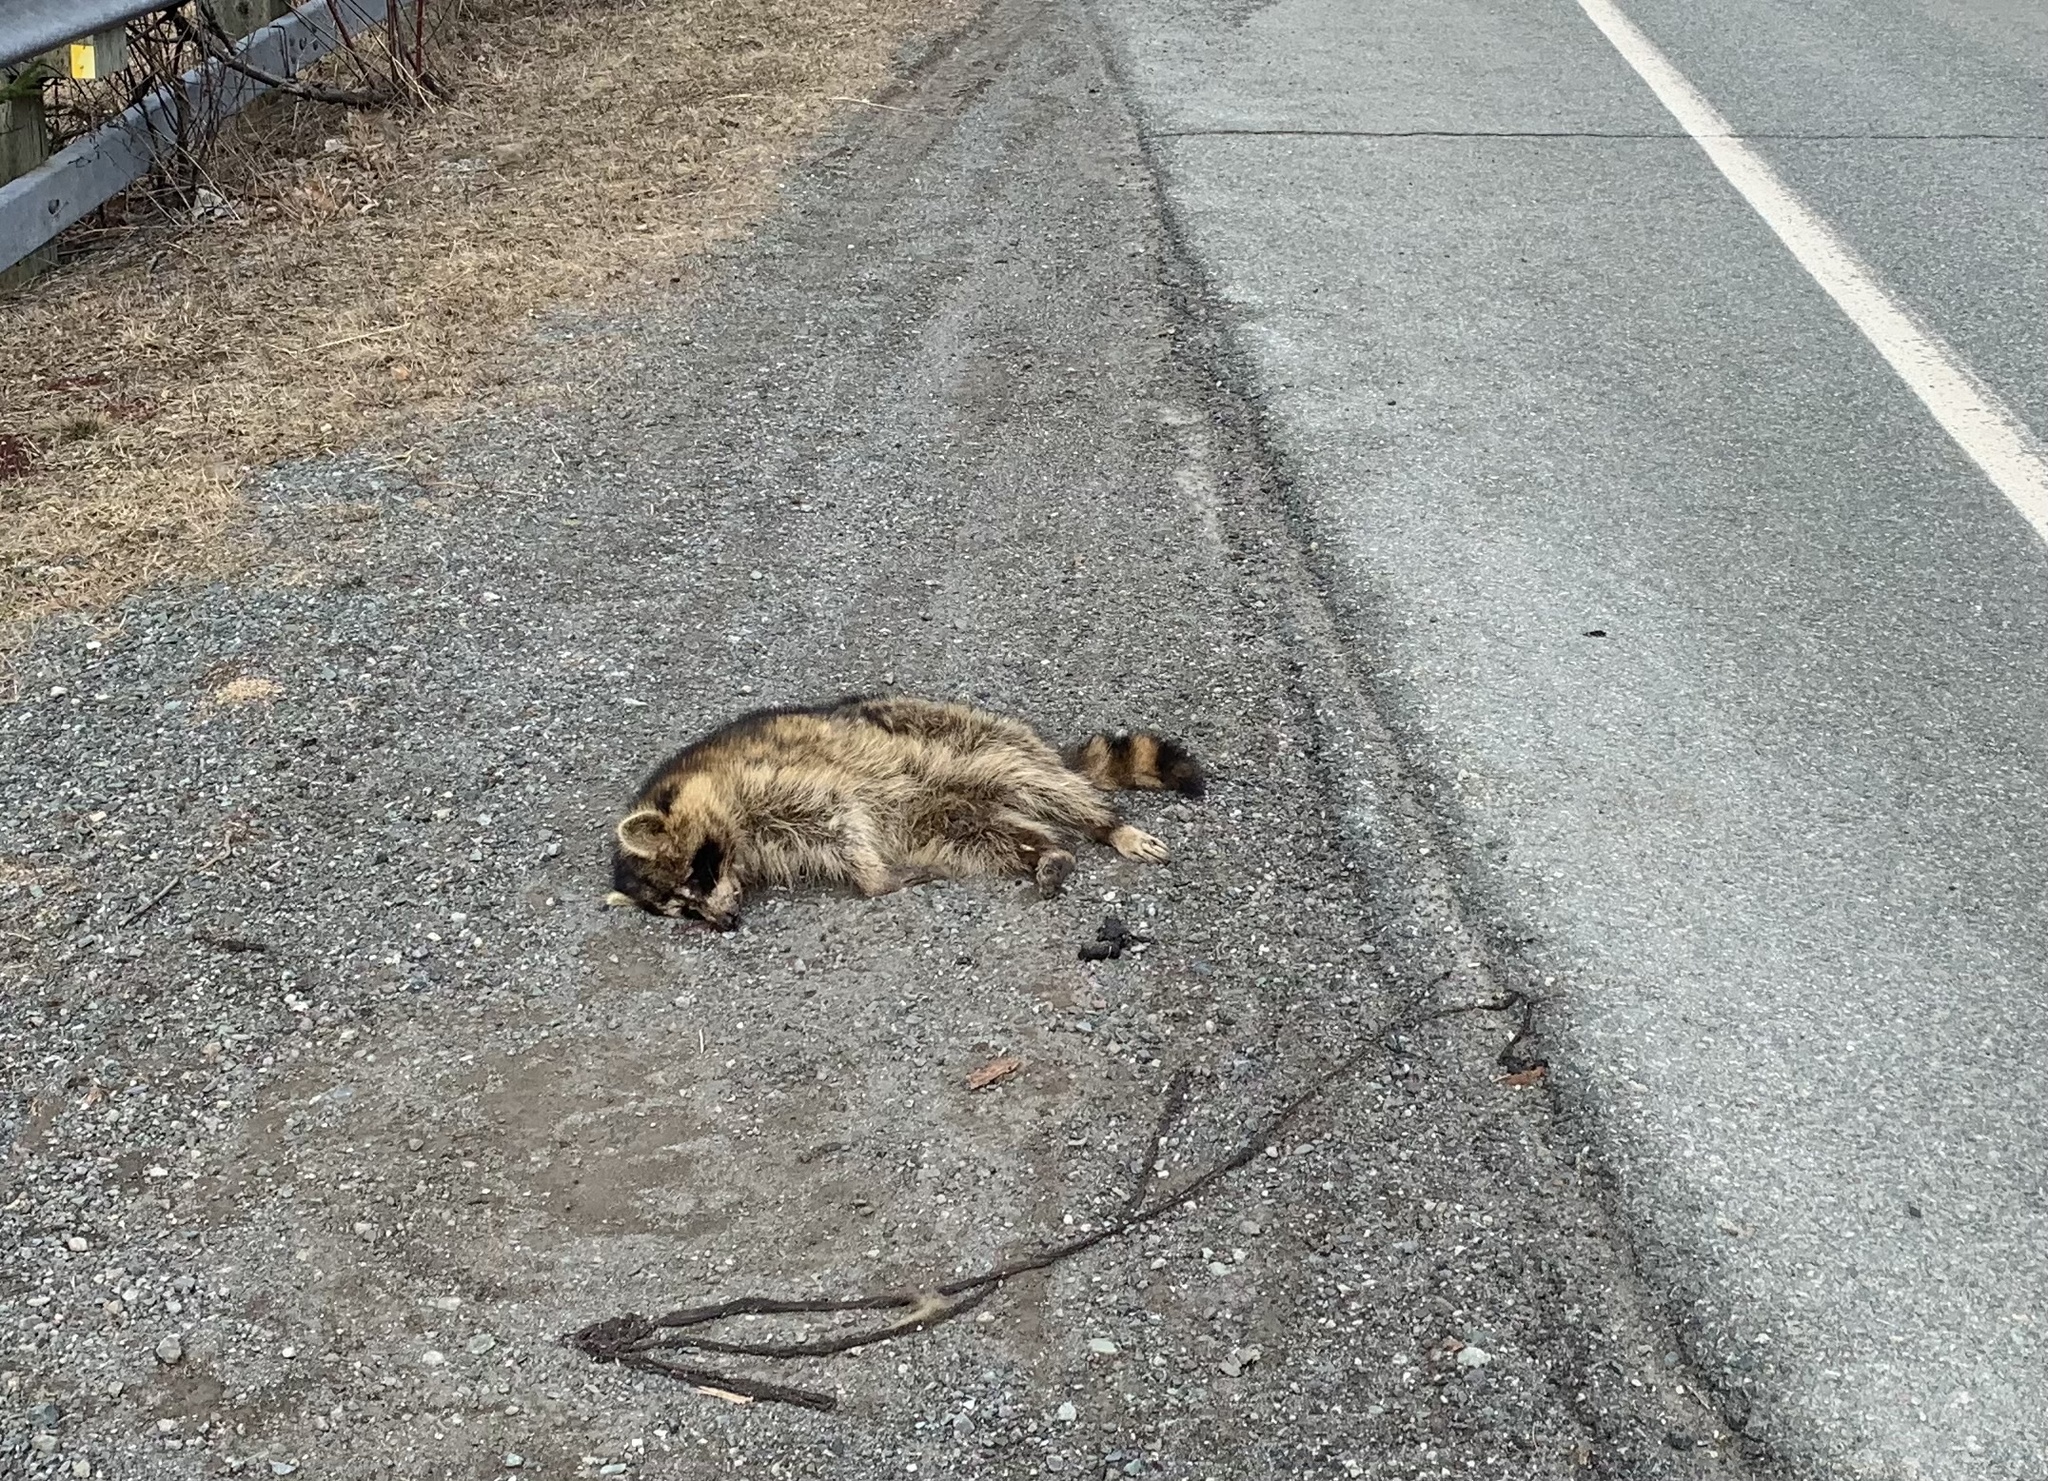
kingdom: Animalia
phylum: Chordata
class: Mammalia
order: Carnivora
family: Procyonidae
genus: Procyon
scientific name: Procyon lotor
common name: Raccoon
